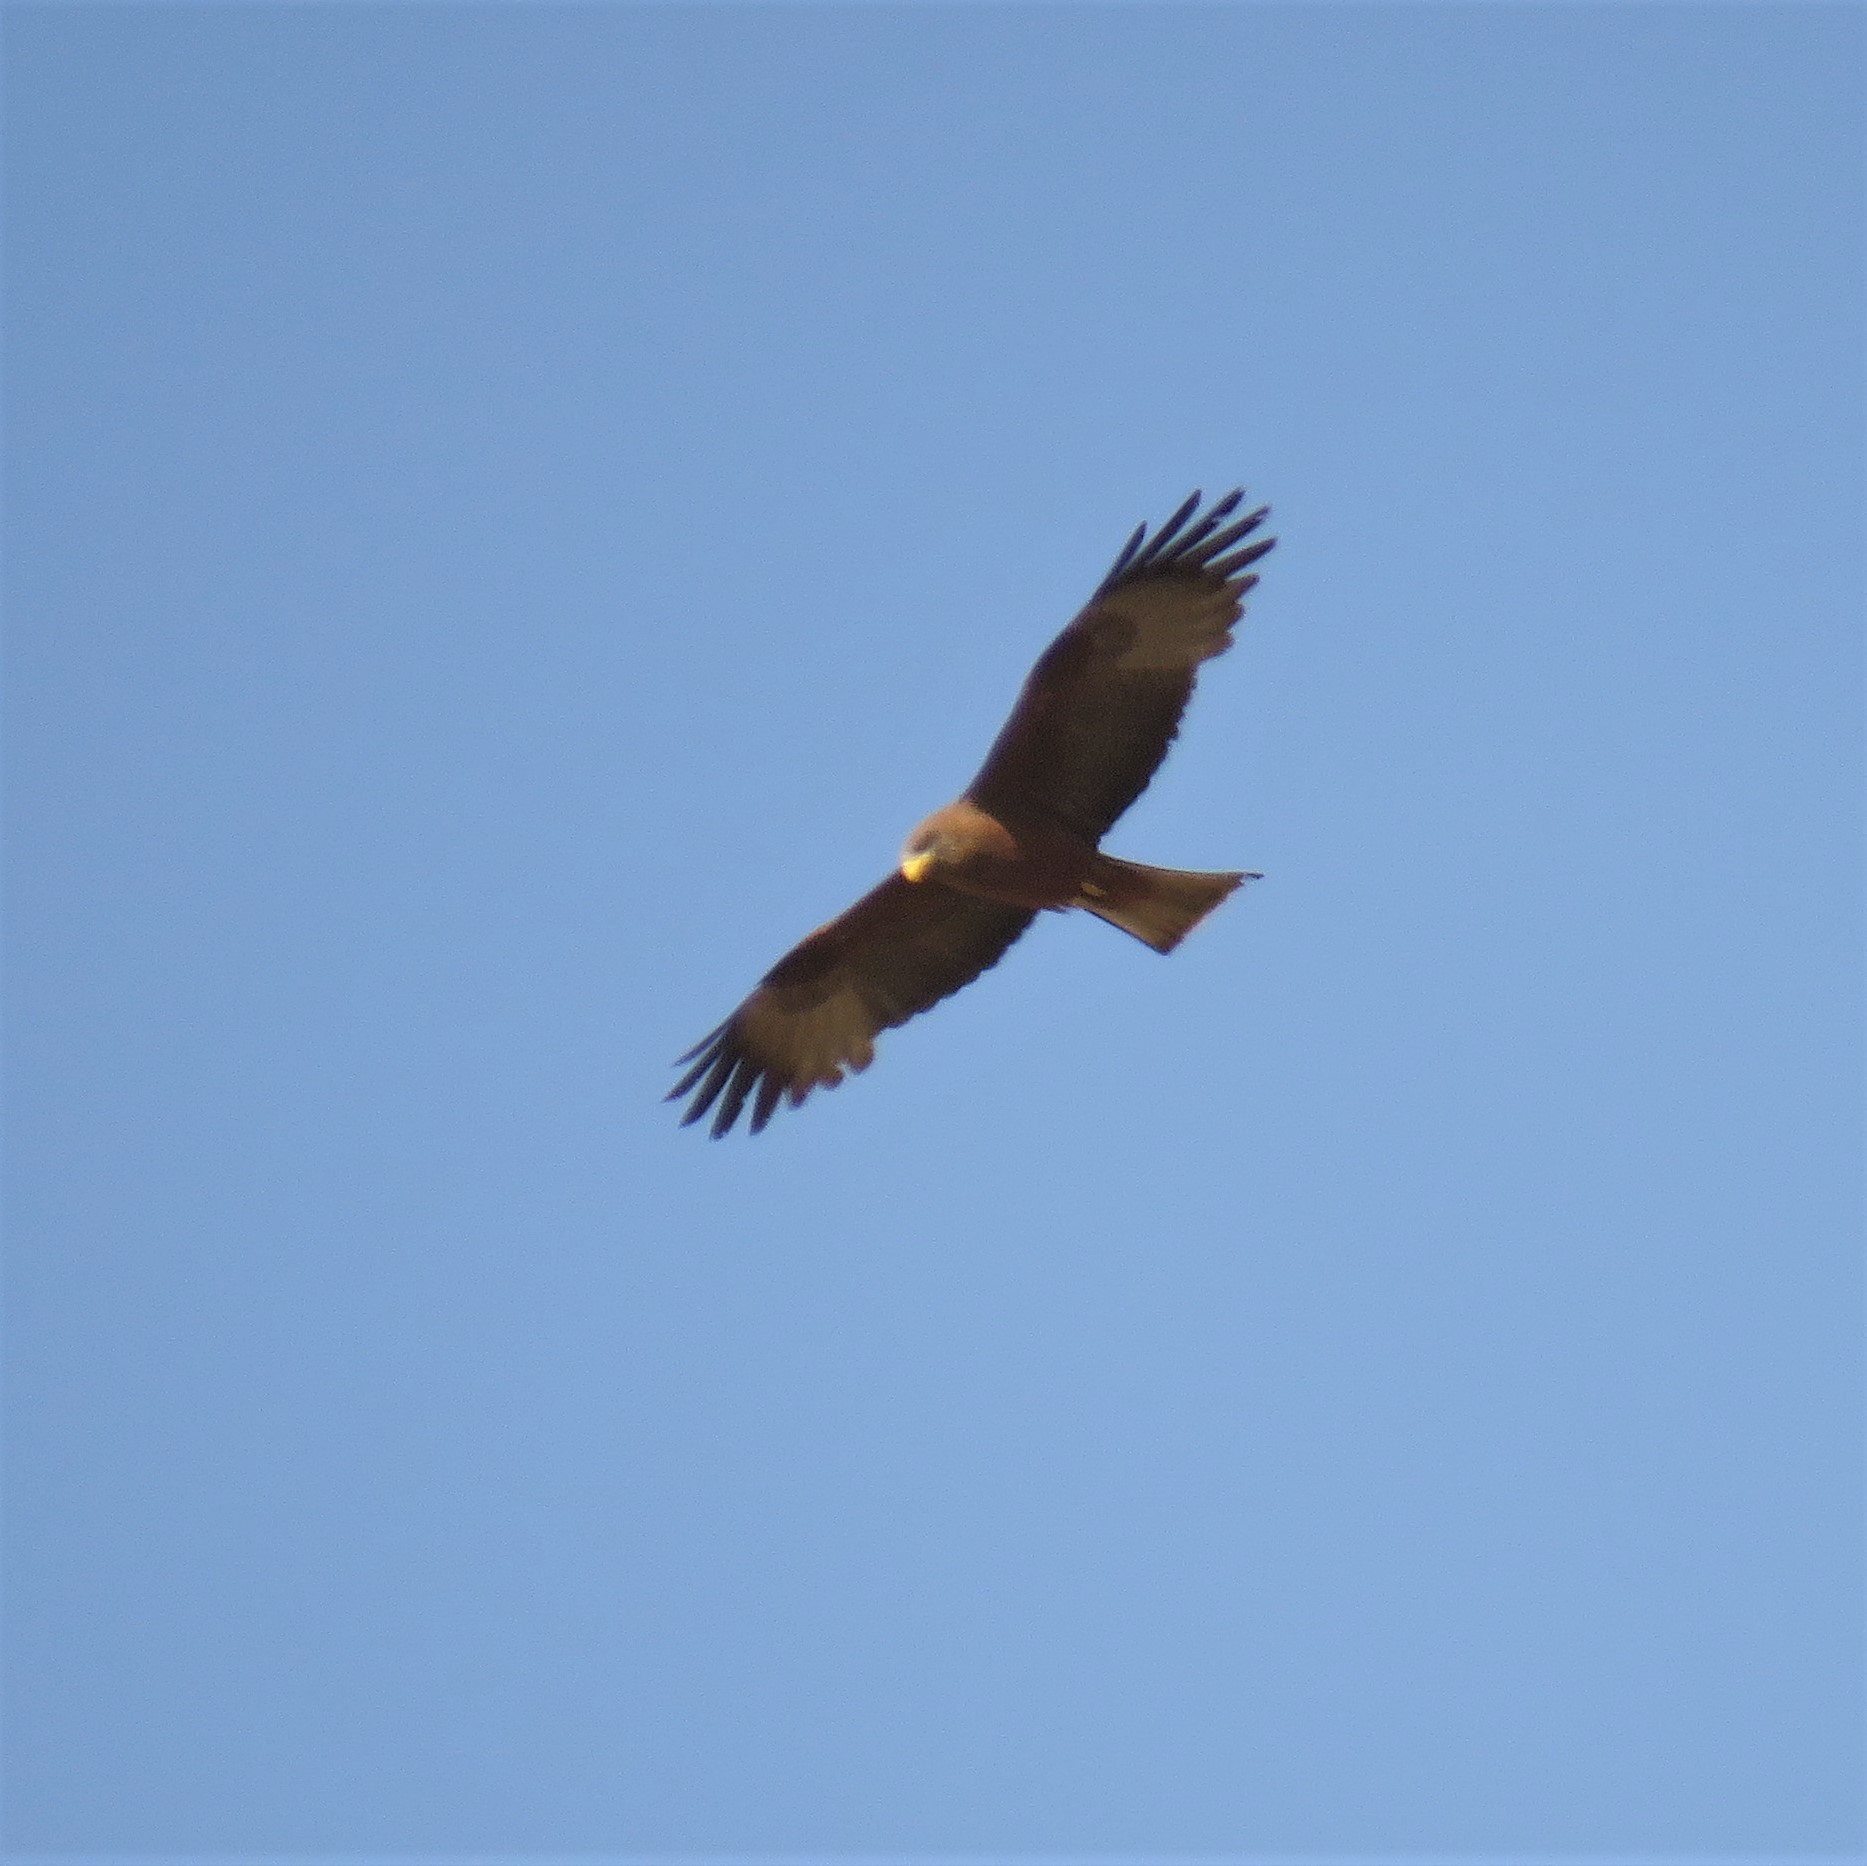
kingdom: Animalia
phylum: Chordata
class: Aves
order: Accipitriformes
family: Accipitridae
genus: Milvus
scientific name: Milvus migrans
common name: Black kite
